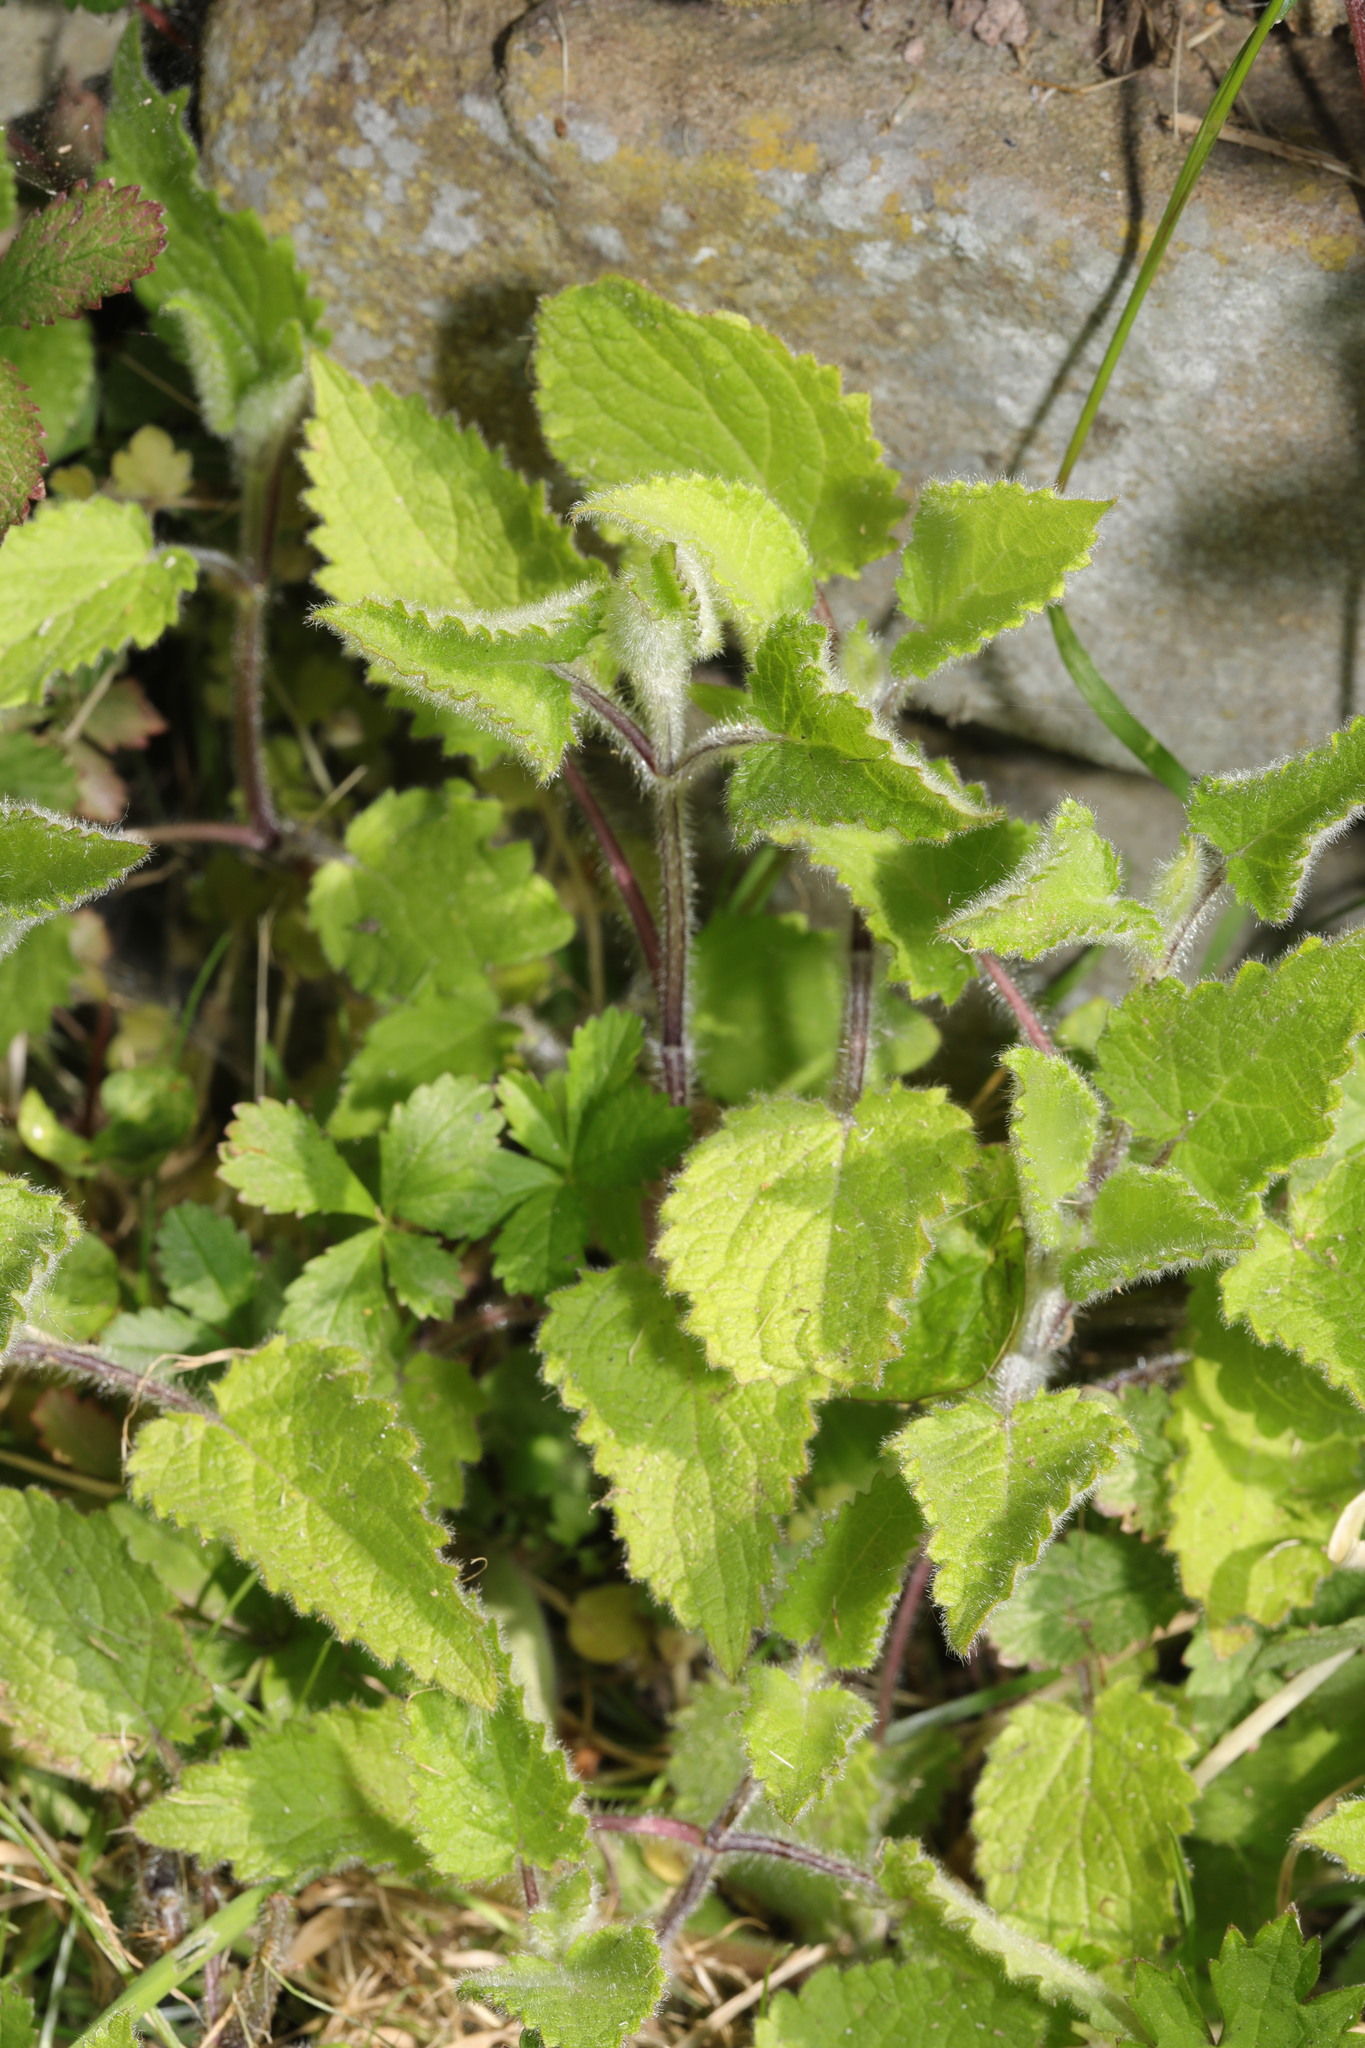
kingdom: Plantae
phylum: Tracheophyta
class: Magnoliopsida
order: Lamiales
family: Lamiaceae
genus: Stachys
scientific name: Stachys sylvatica
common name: Hedge woundwort
